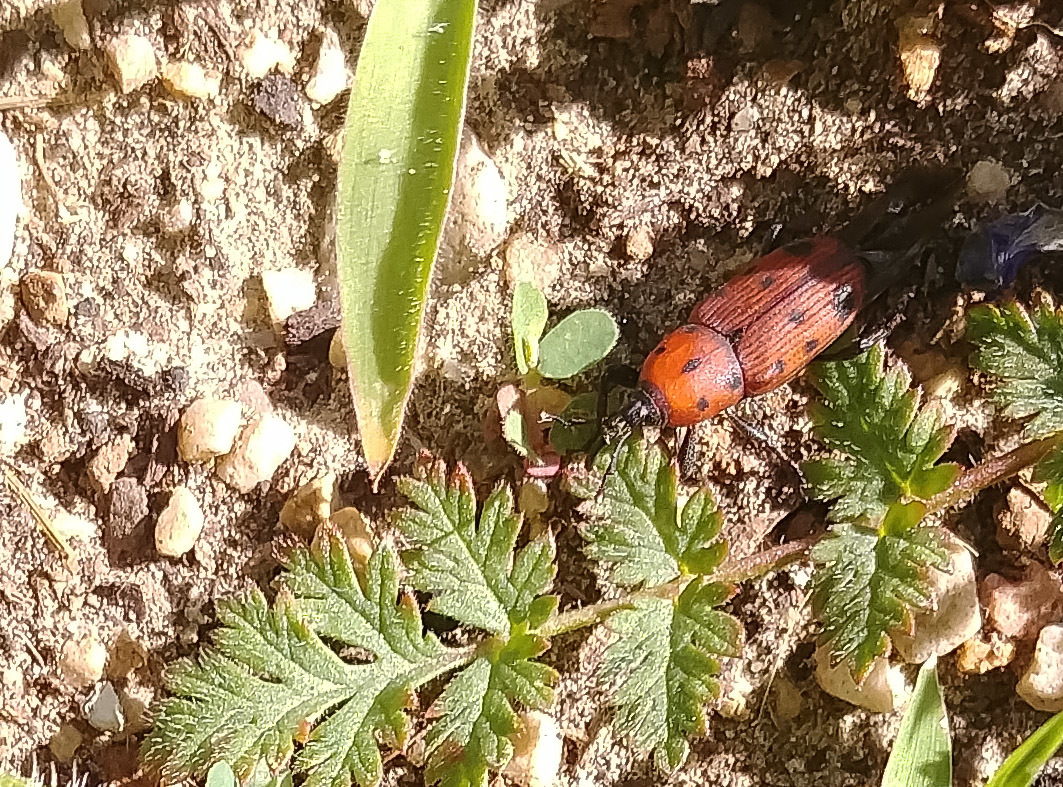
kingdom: Animalia
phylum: Arthropoda
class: Insecta
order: Coleoptera
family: Dryophthoridae
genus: Rhodobaenus
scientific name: Rhodobaenus tredecimpunctatus
